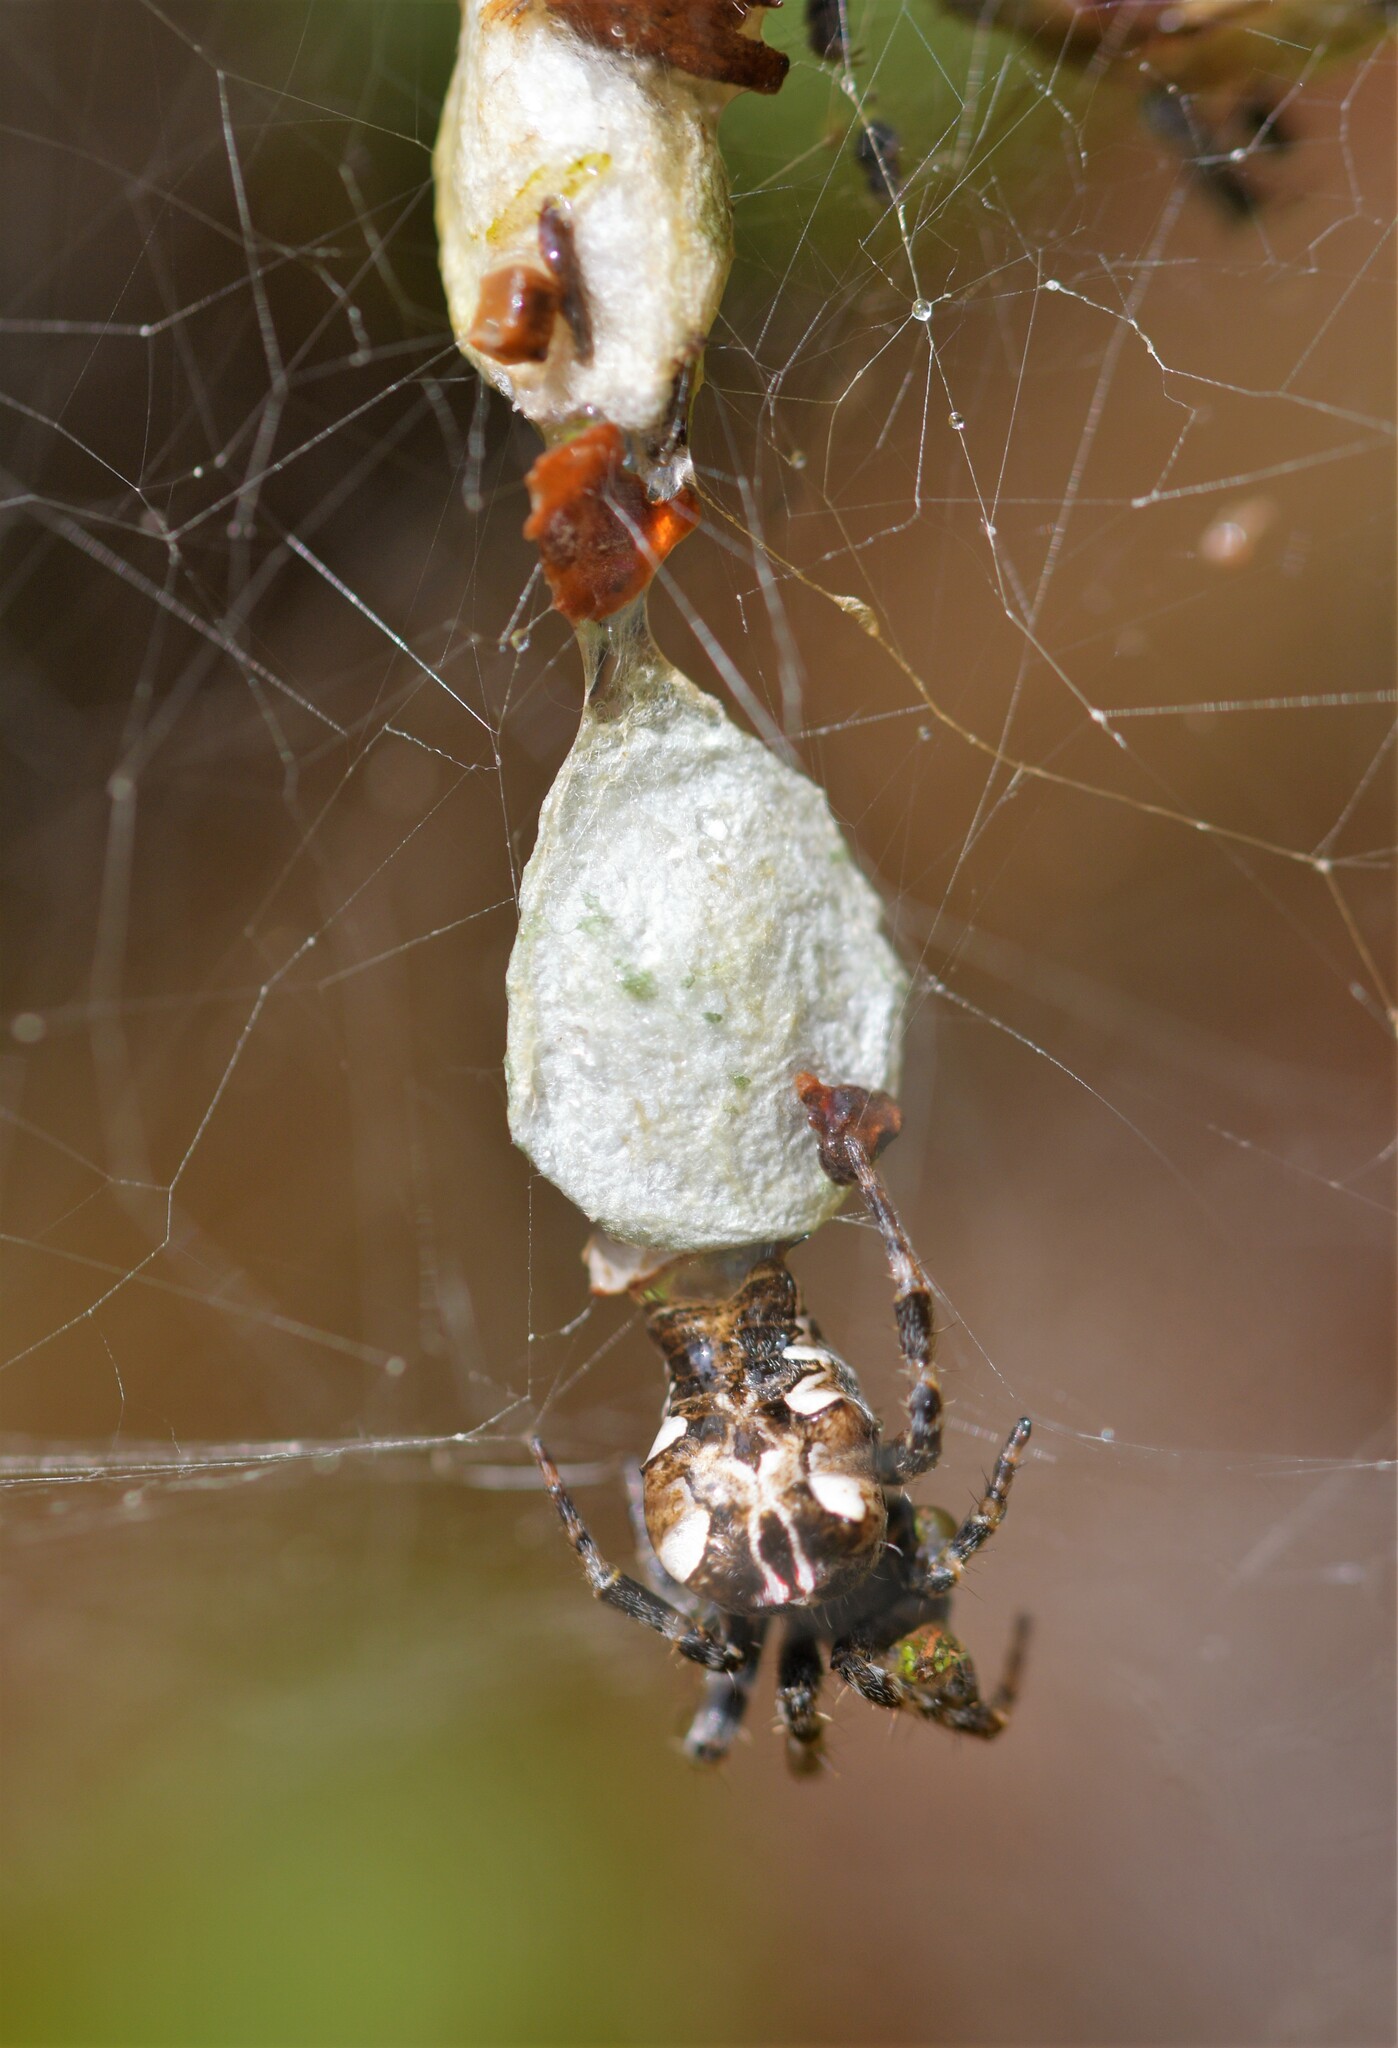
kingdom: Animalia
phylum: Arthropoda
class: Arachnida
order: Araneae
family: Araneidae
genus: Cyrtophora
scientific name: Cyrtophora citricola
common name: Orb weavers
